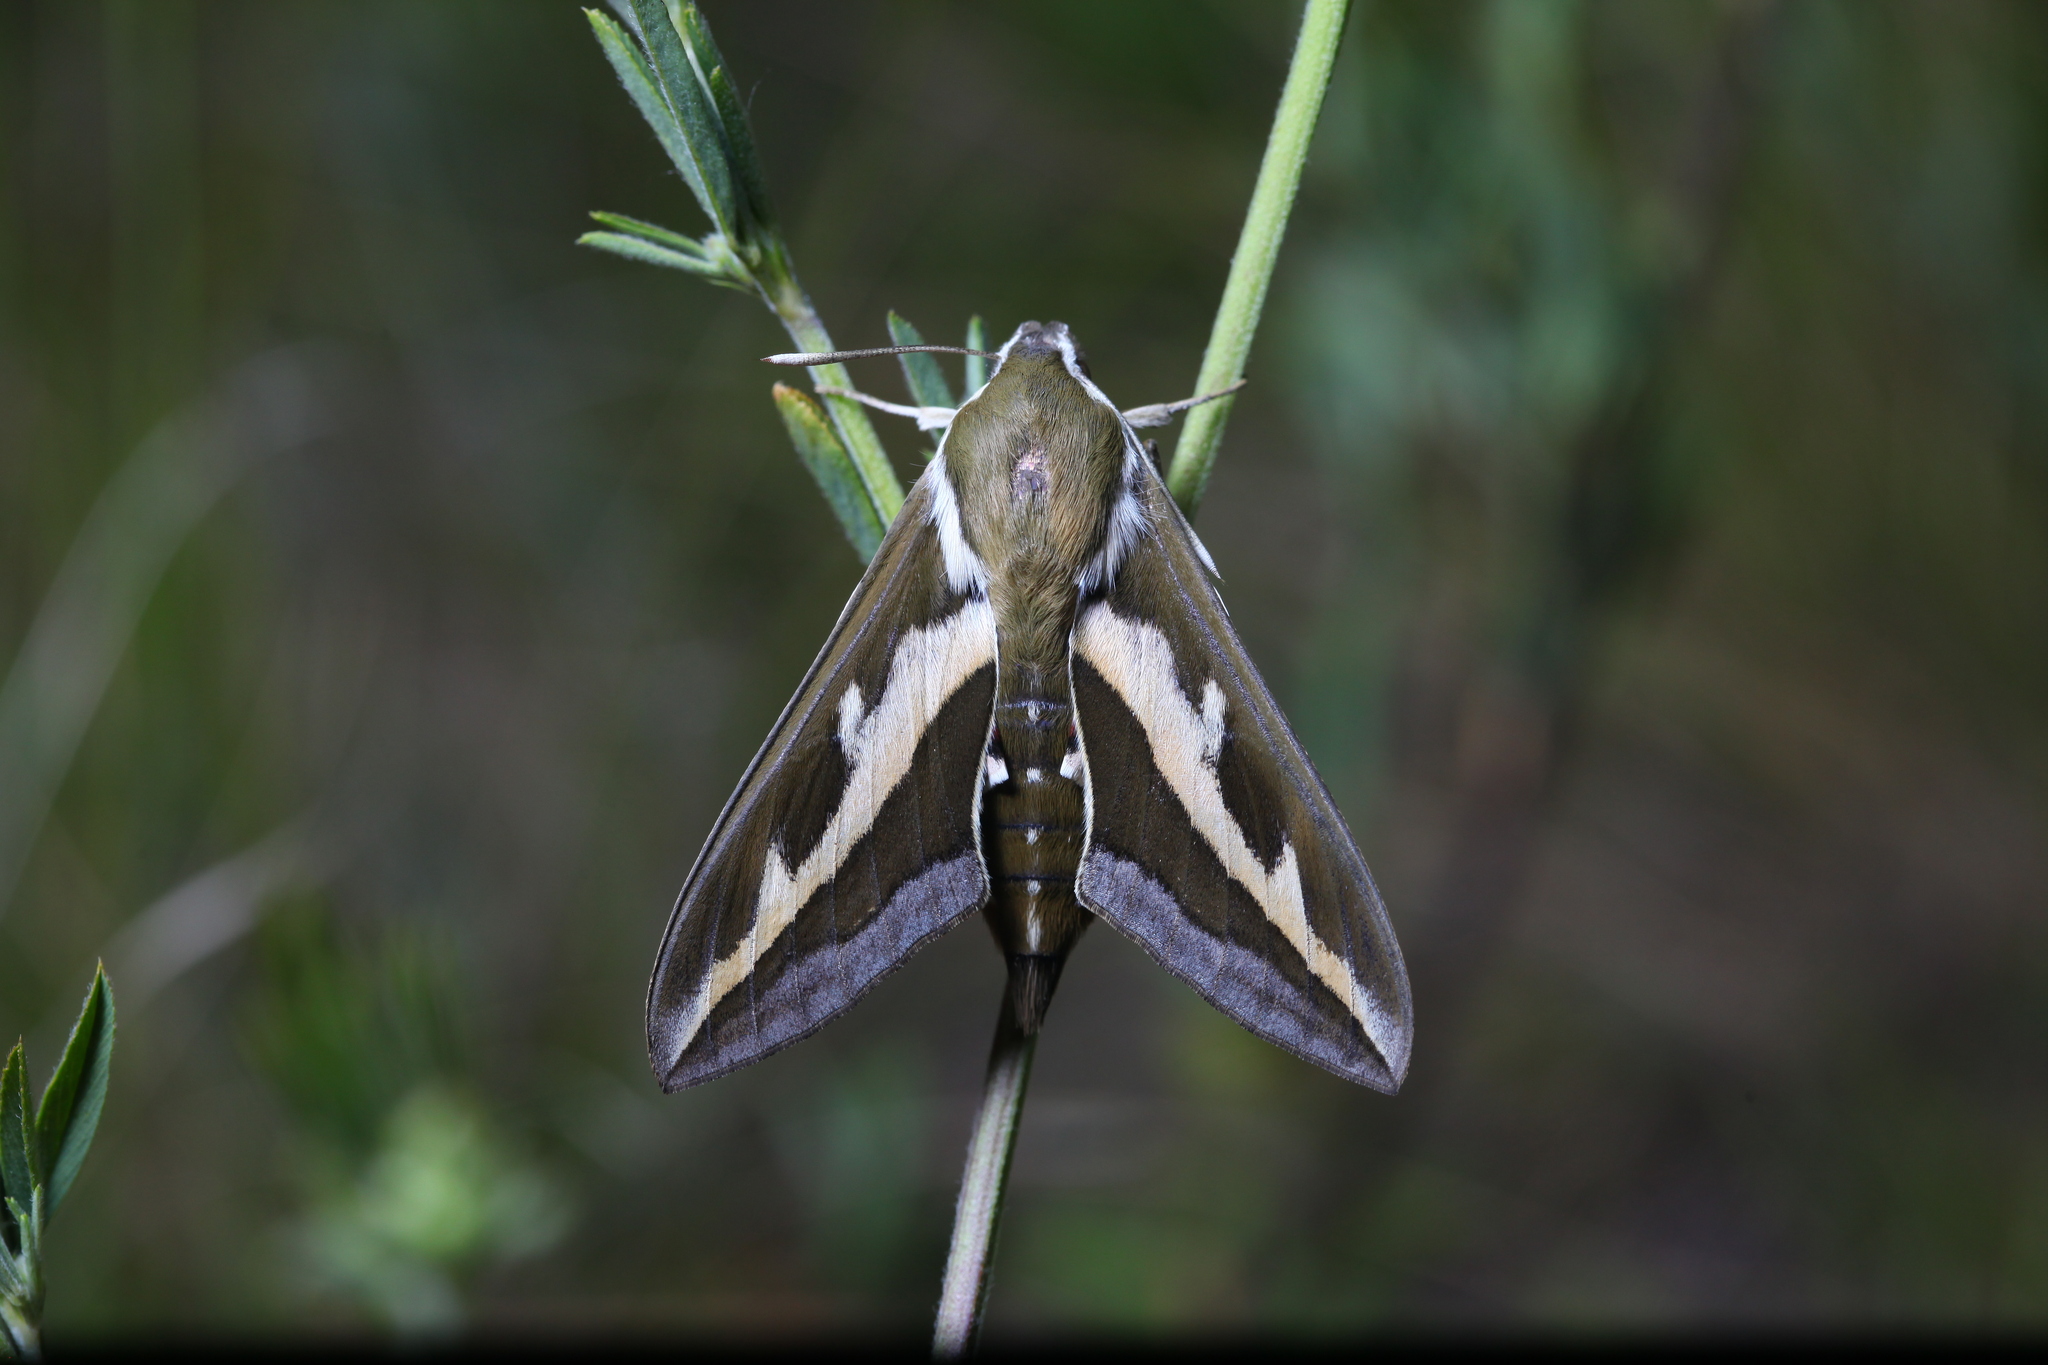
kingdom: Animalia
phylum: Arthropoda
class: Insecta
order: Lepidoptera
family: Sphingidae
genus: Hyles
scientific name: Hyles gallii
